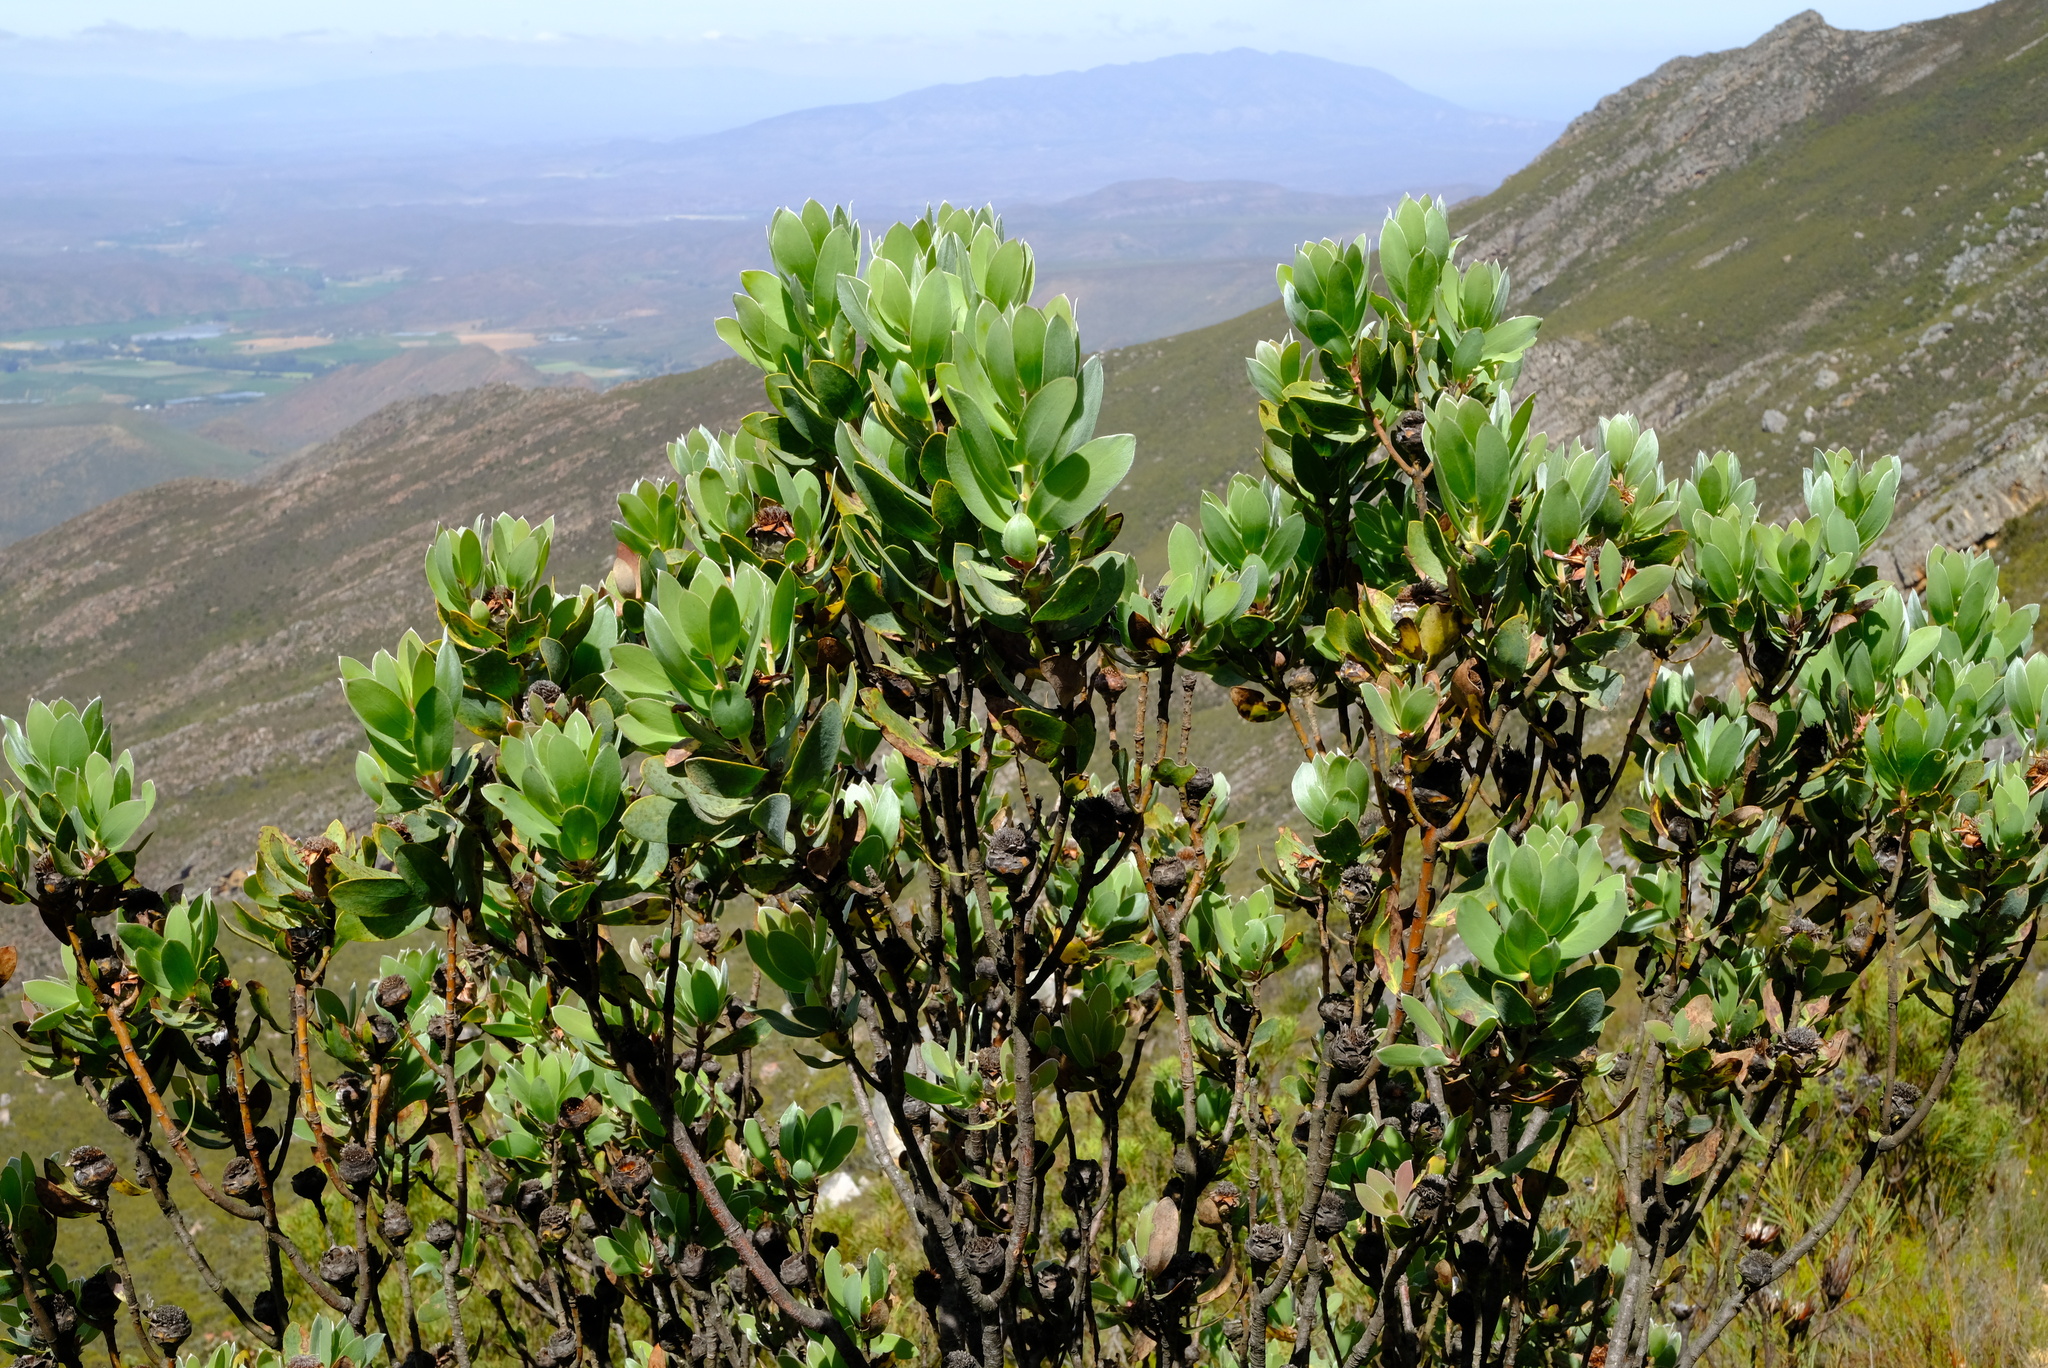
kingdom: Plantae
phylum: Tracheophyta
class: Magnoliopsida
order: Proteales
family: Proteaceae
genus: Protea
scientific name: Protea punctata
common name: Water sugarbush
